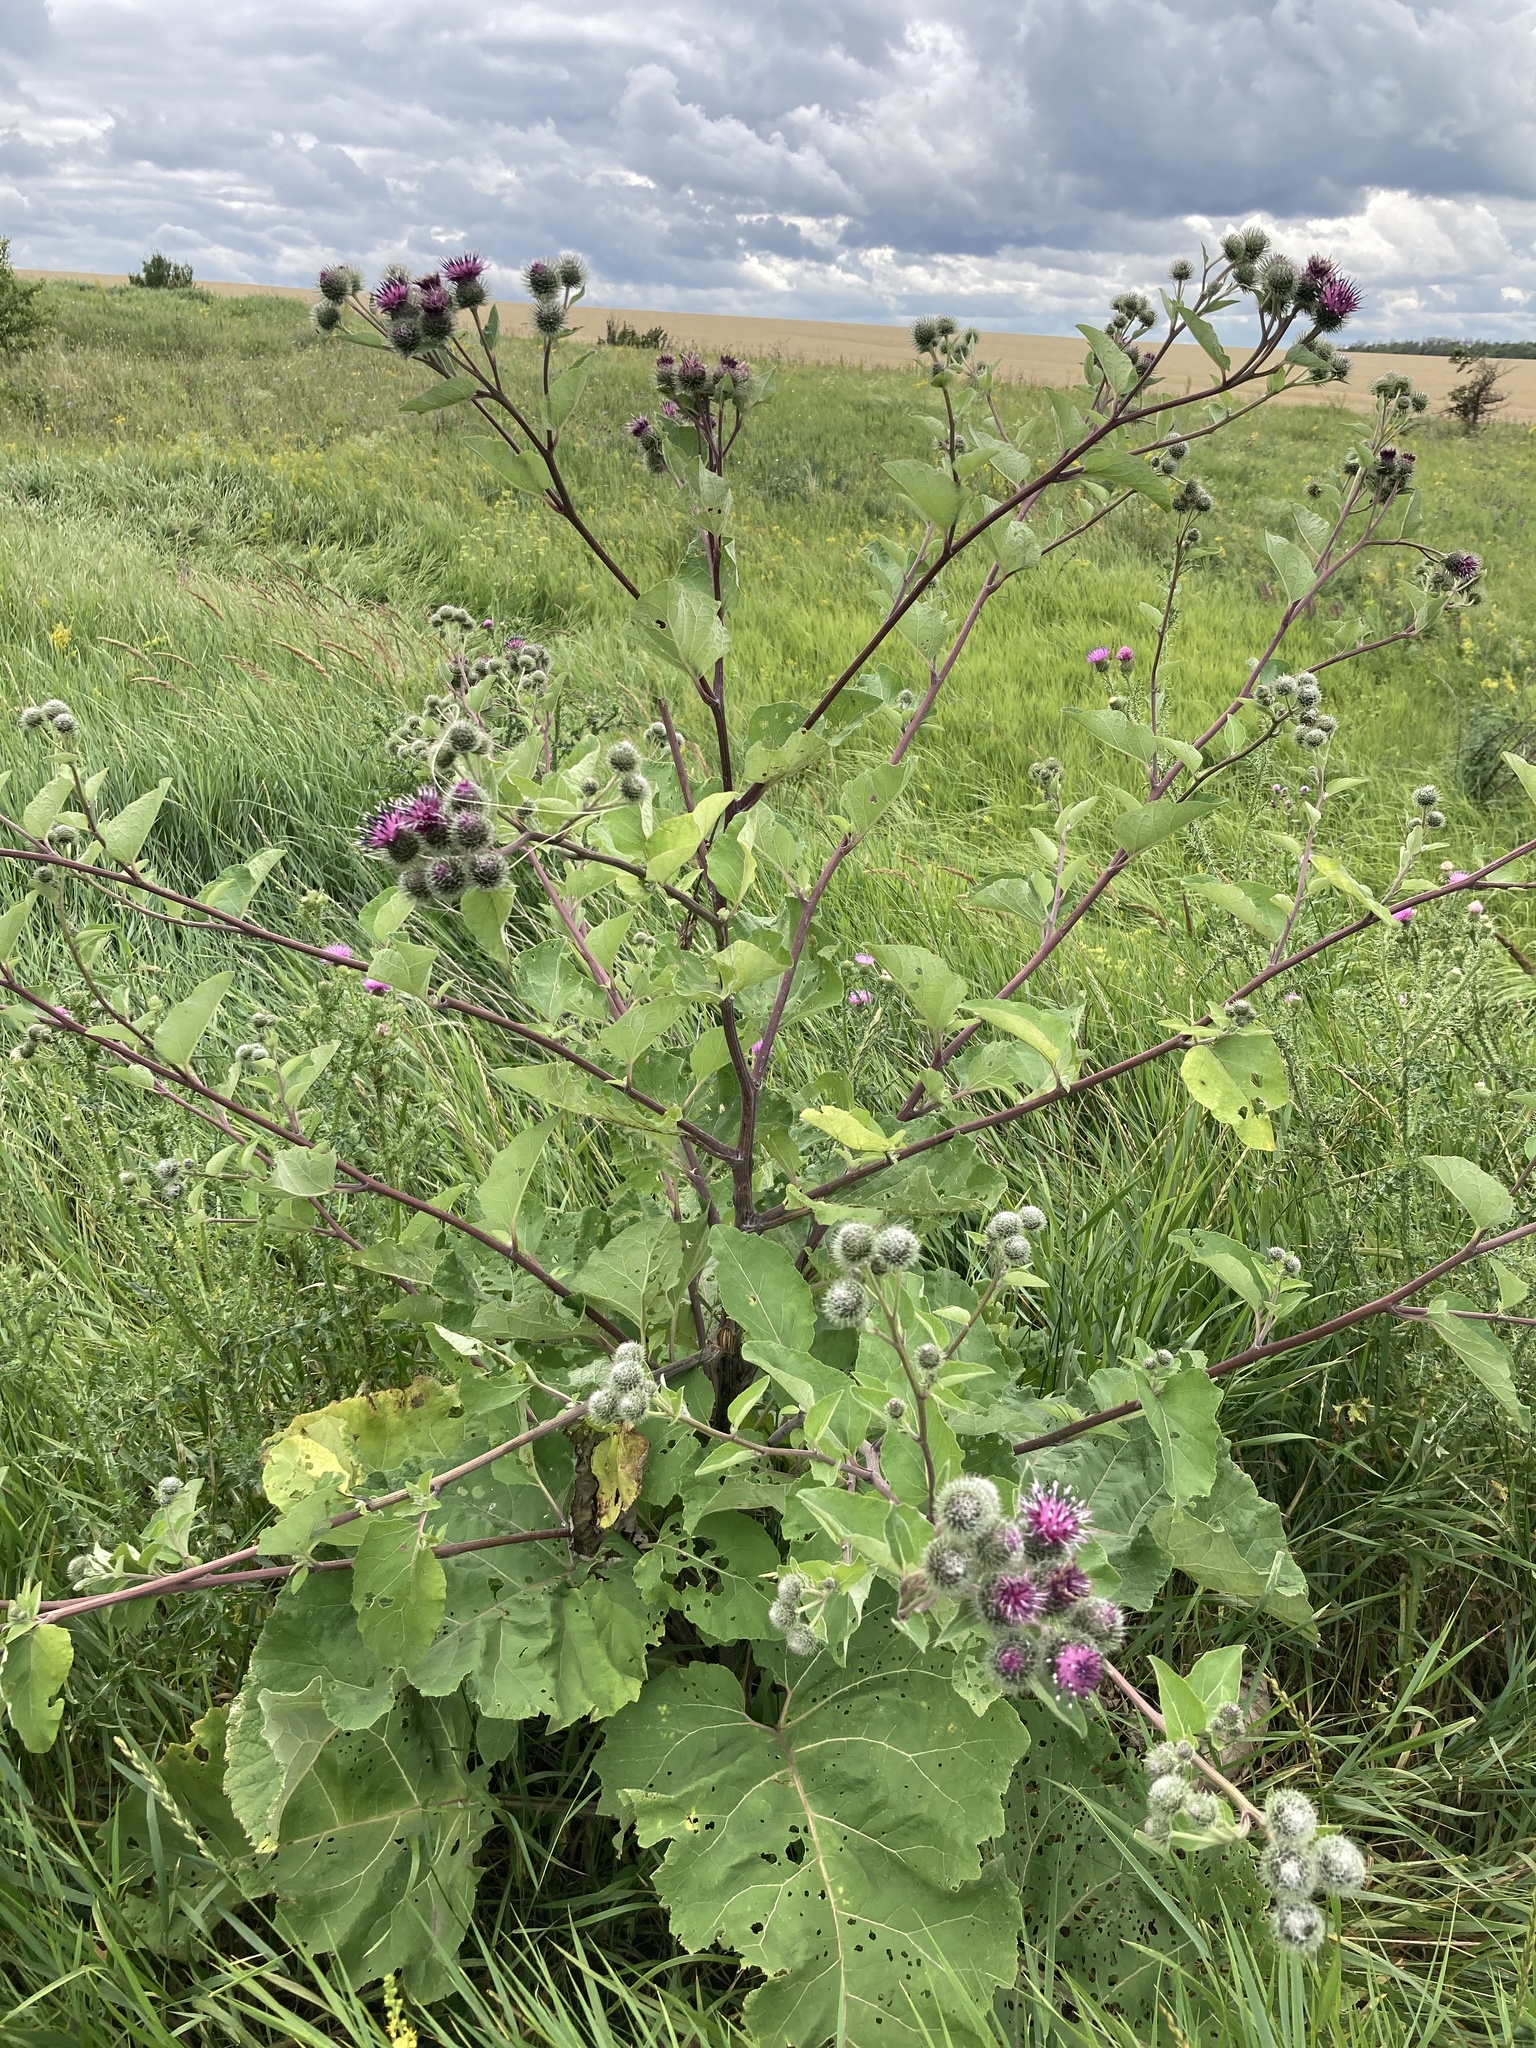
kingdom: Plantae
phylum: Tracheophyta
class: Magnoliopsida
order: Asterales
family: Asteraceae
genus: Arctium
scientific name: Arctium tomentosum
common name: Woolly burdock
